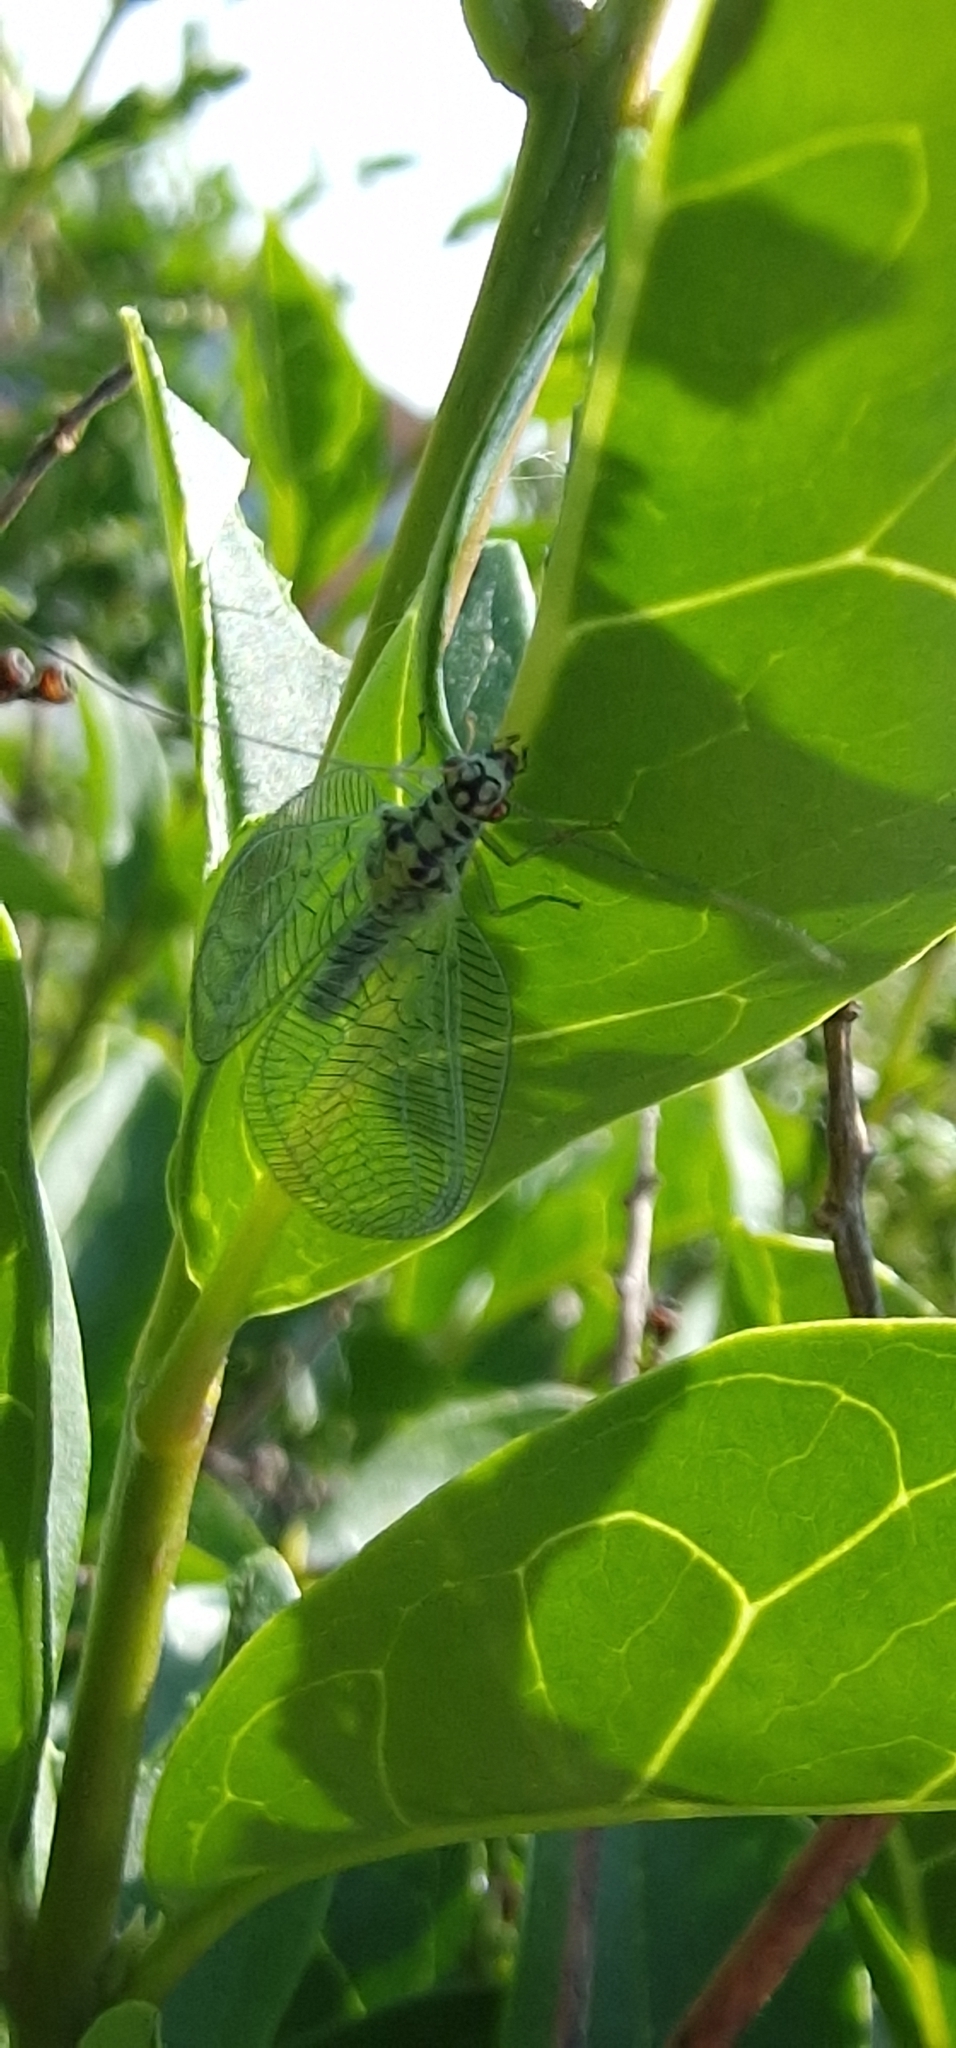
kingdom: Animalia
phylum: Arthropoda
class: Insecta
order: Neuroptera
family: Chrysopidae
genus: Chrysopa
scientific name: Chrysopa perla
